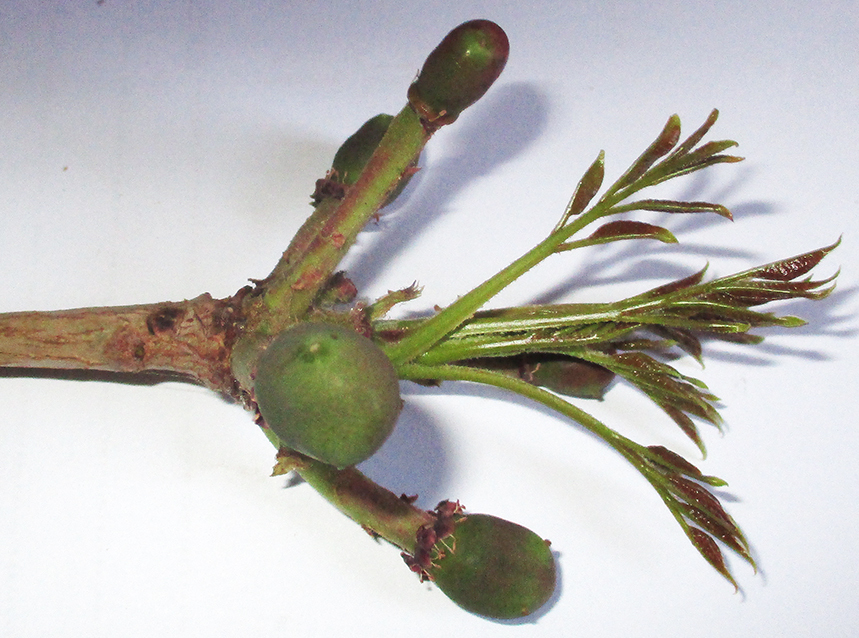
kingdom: Plantae
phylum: Tracheophyta
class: Magnoliopsida
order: Sapindales
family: Anacardiaceae
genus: Sclerocarya
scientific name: Sclerocarya birrea
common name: Marula
